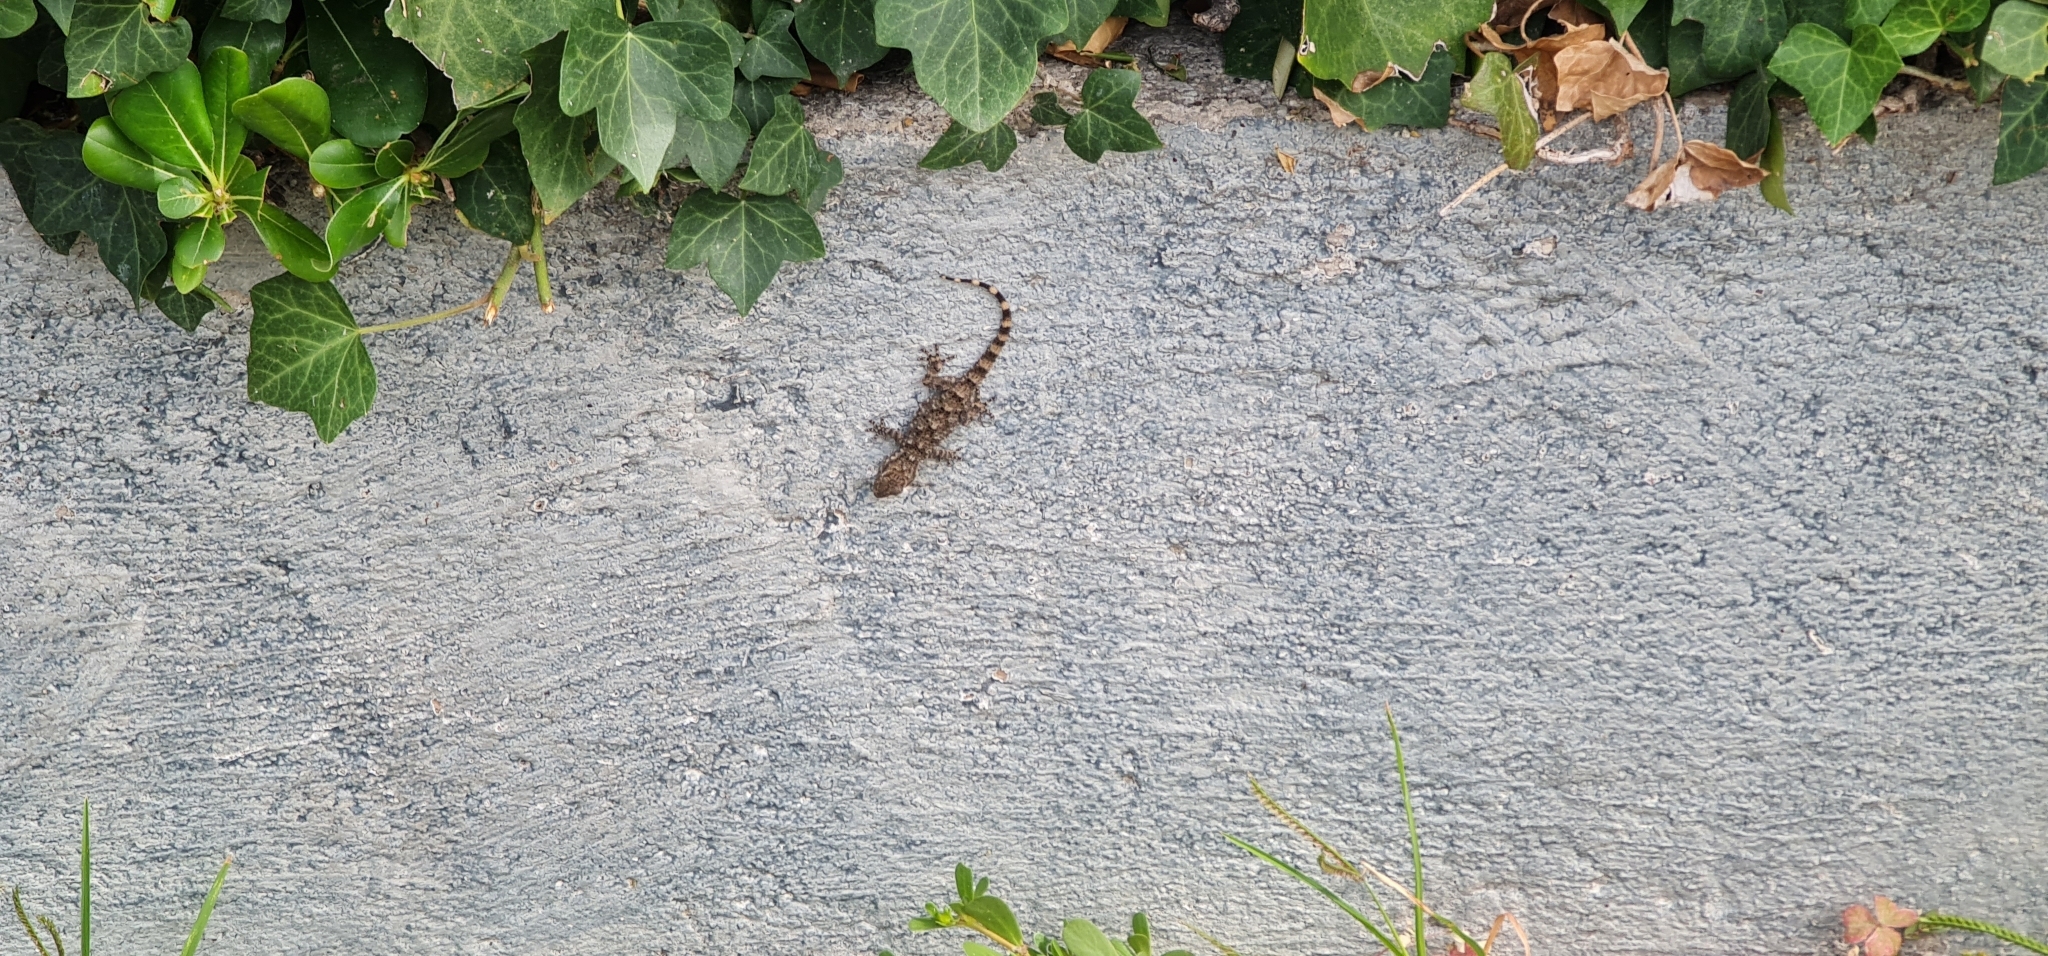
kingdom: Animalia
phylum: Chordata
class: Squamata
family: Phyllodactylidae
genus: Tarentola
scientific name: Tarentola mauritanica
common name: Moorish gecko
